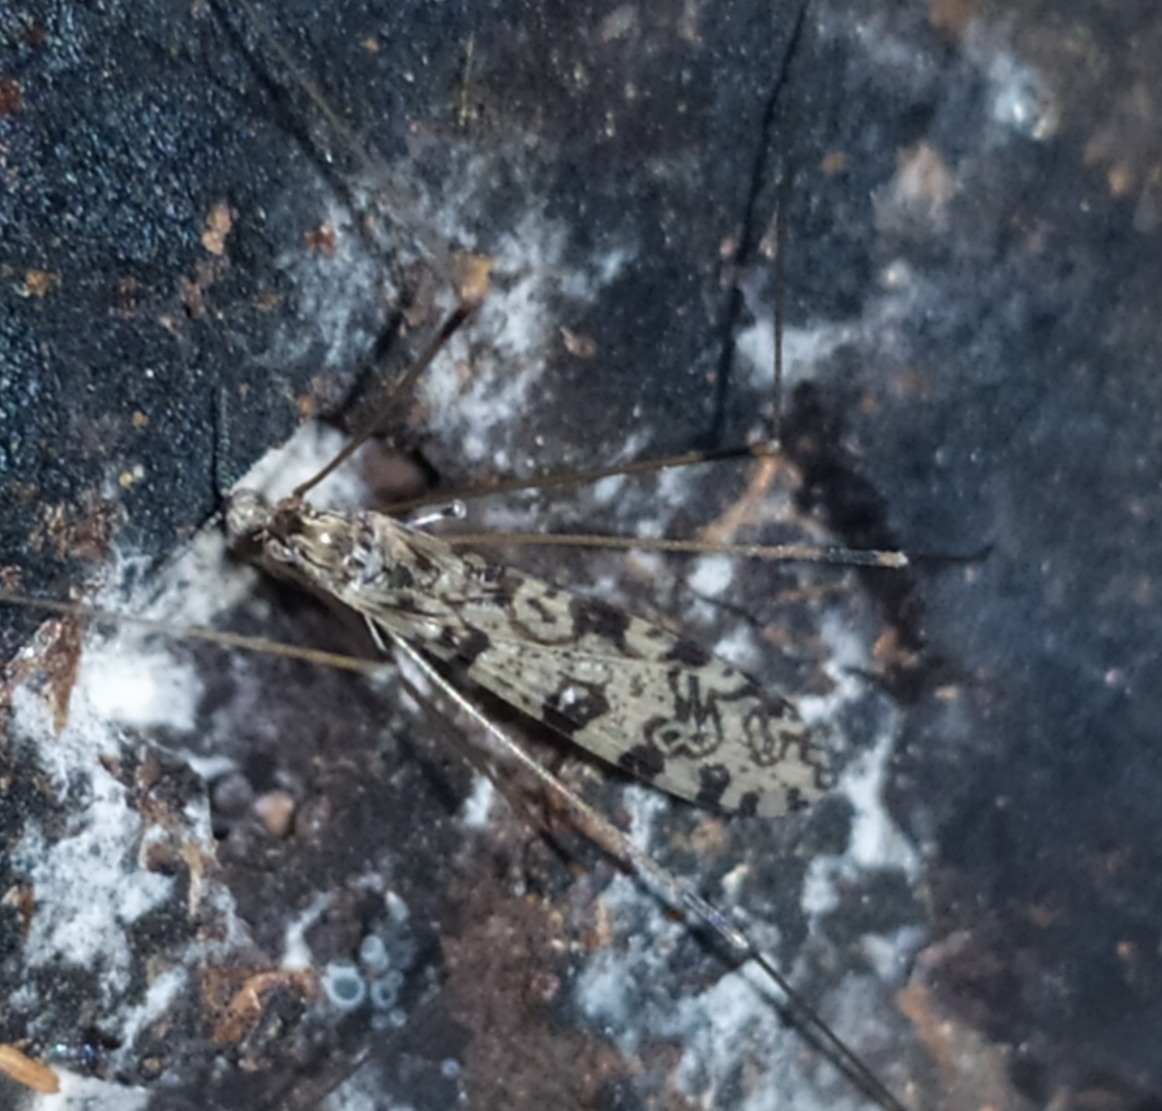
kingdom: Animalia
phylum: Arthropoda
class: Insecta
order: Diptera
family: Limoniidae
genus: Discobola
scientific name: Discobola annulata
